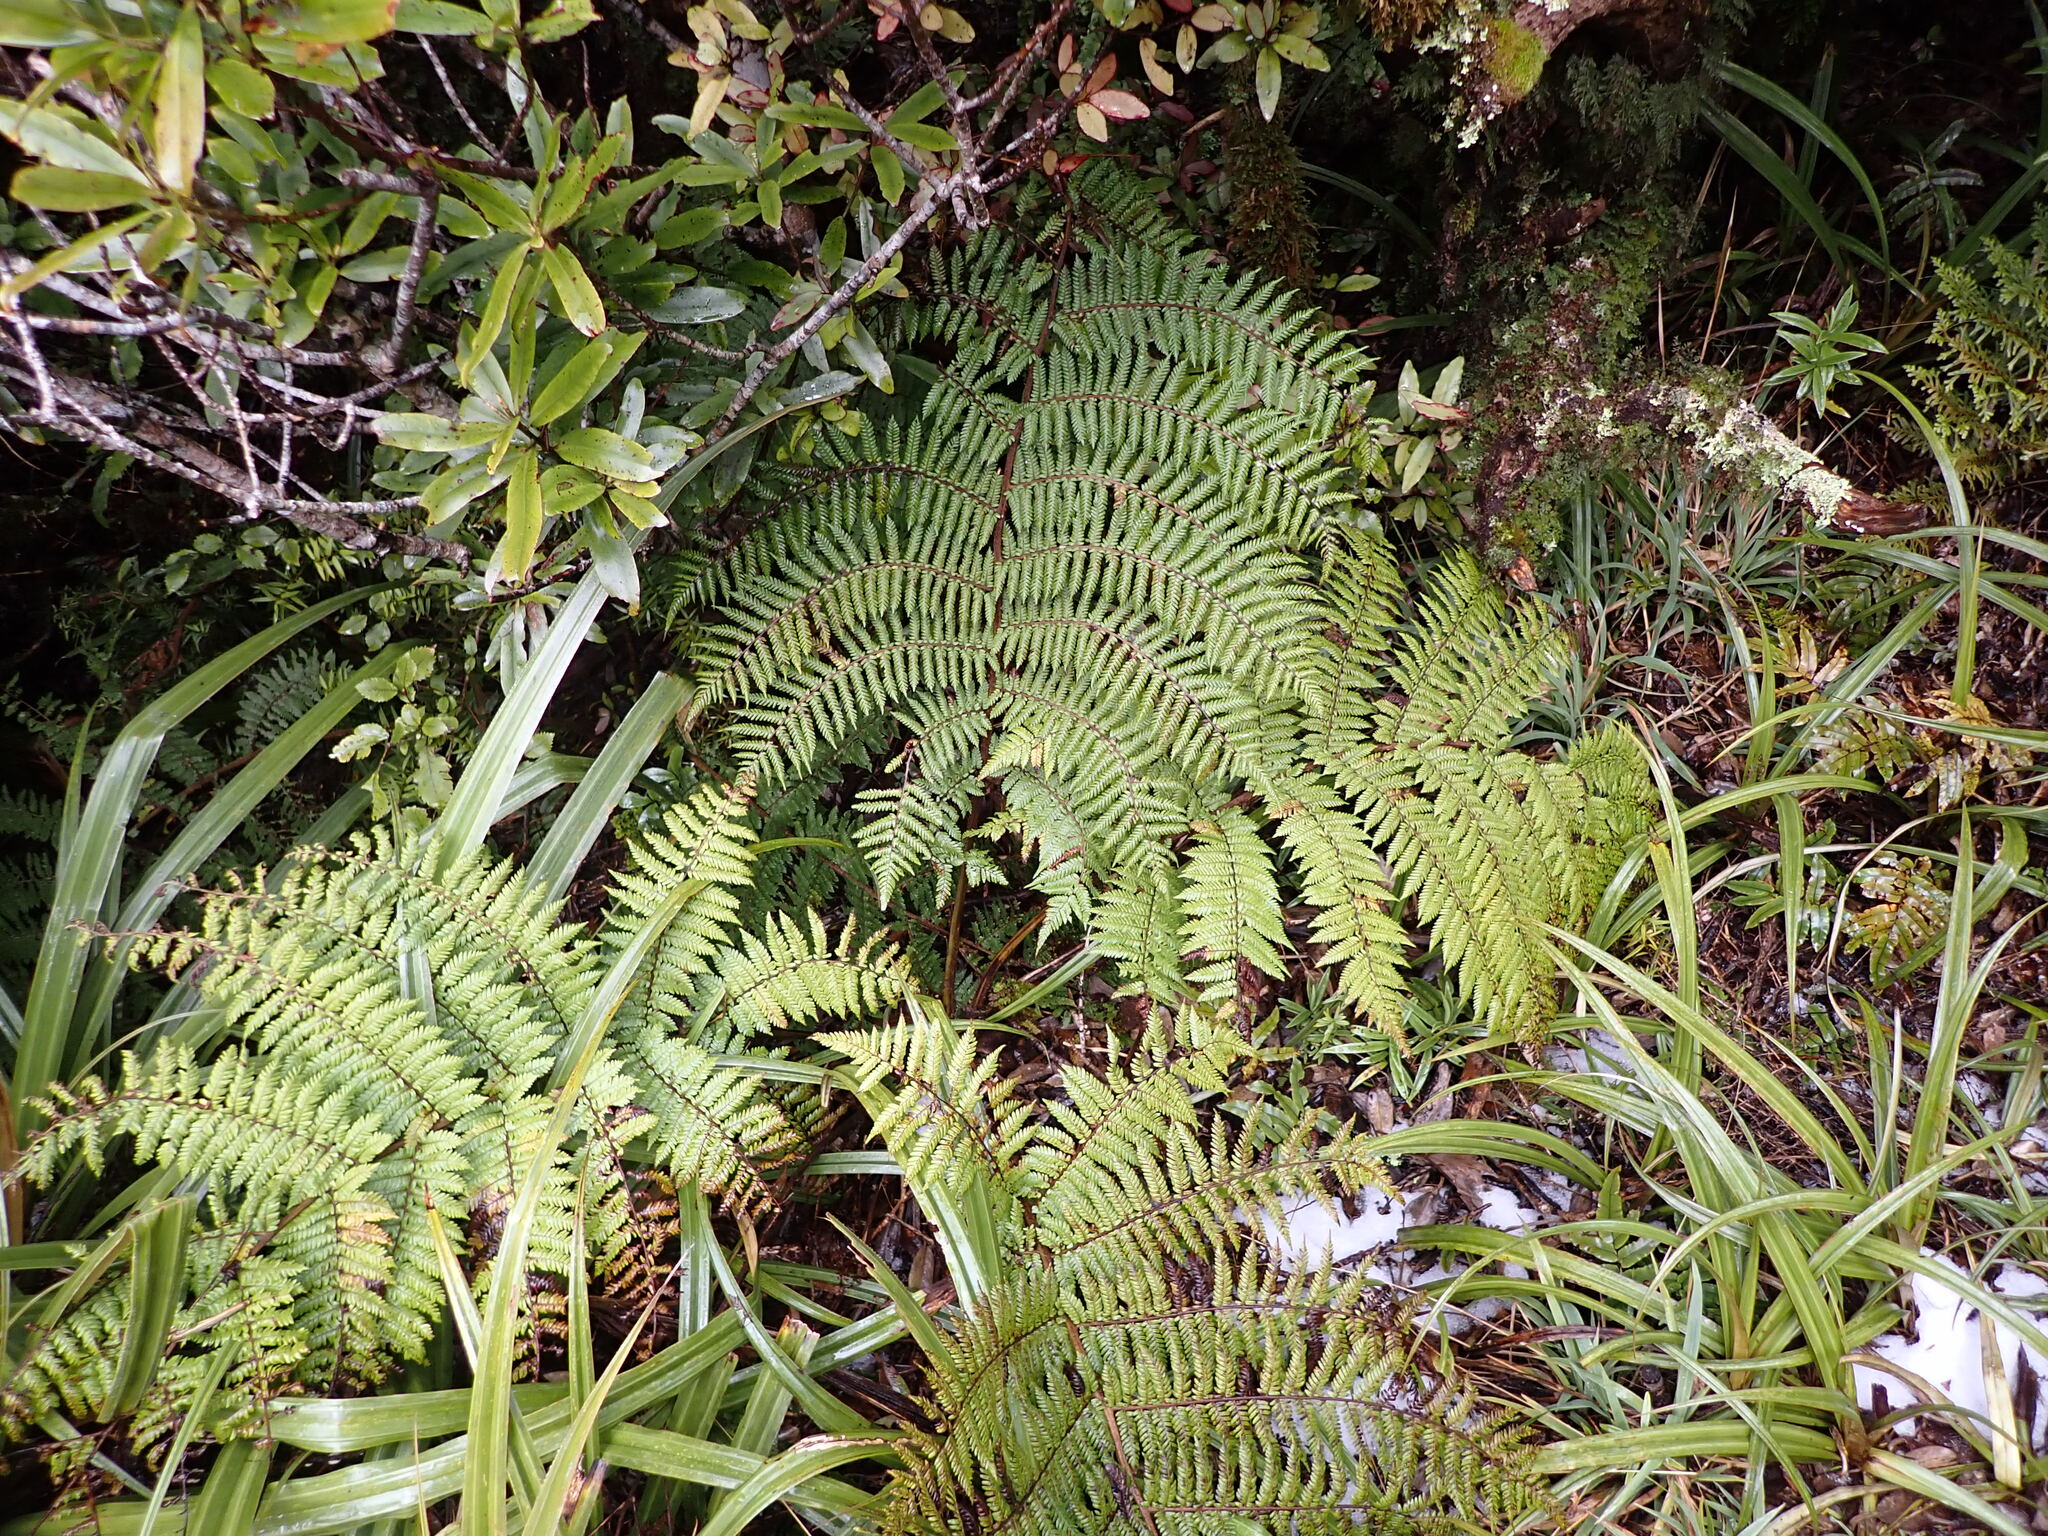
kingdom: Plantae
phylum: Tracheophyta
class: Polypodiopsida
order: Cyatheales
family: Cyatheaceae
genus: Alsophila
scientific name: Alsophila colensoi
